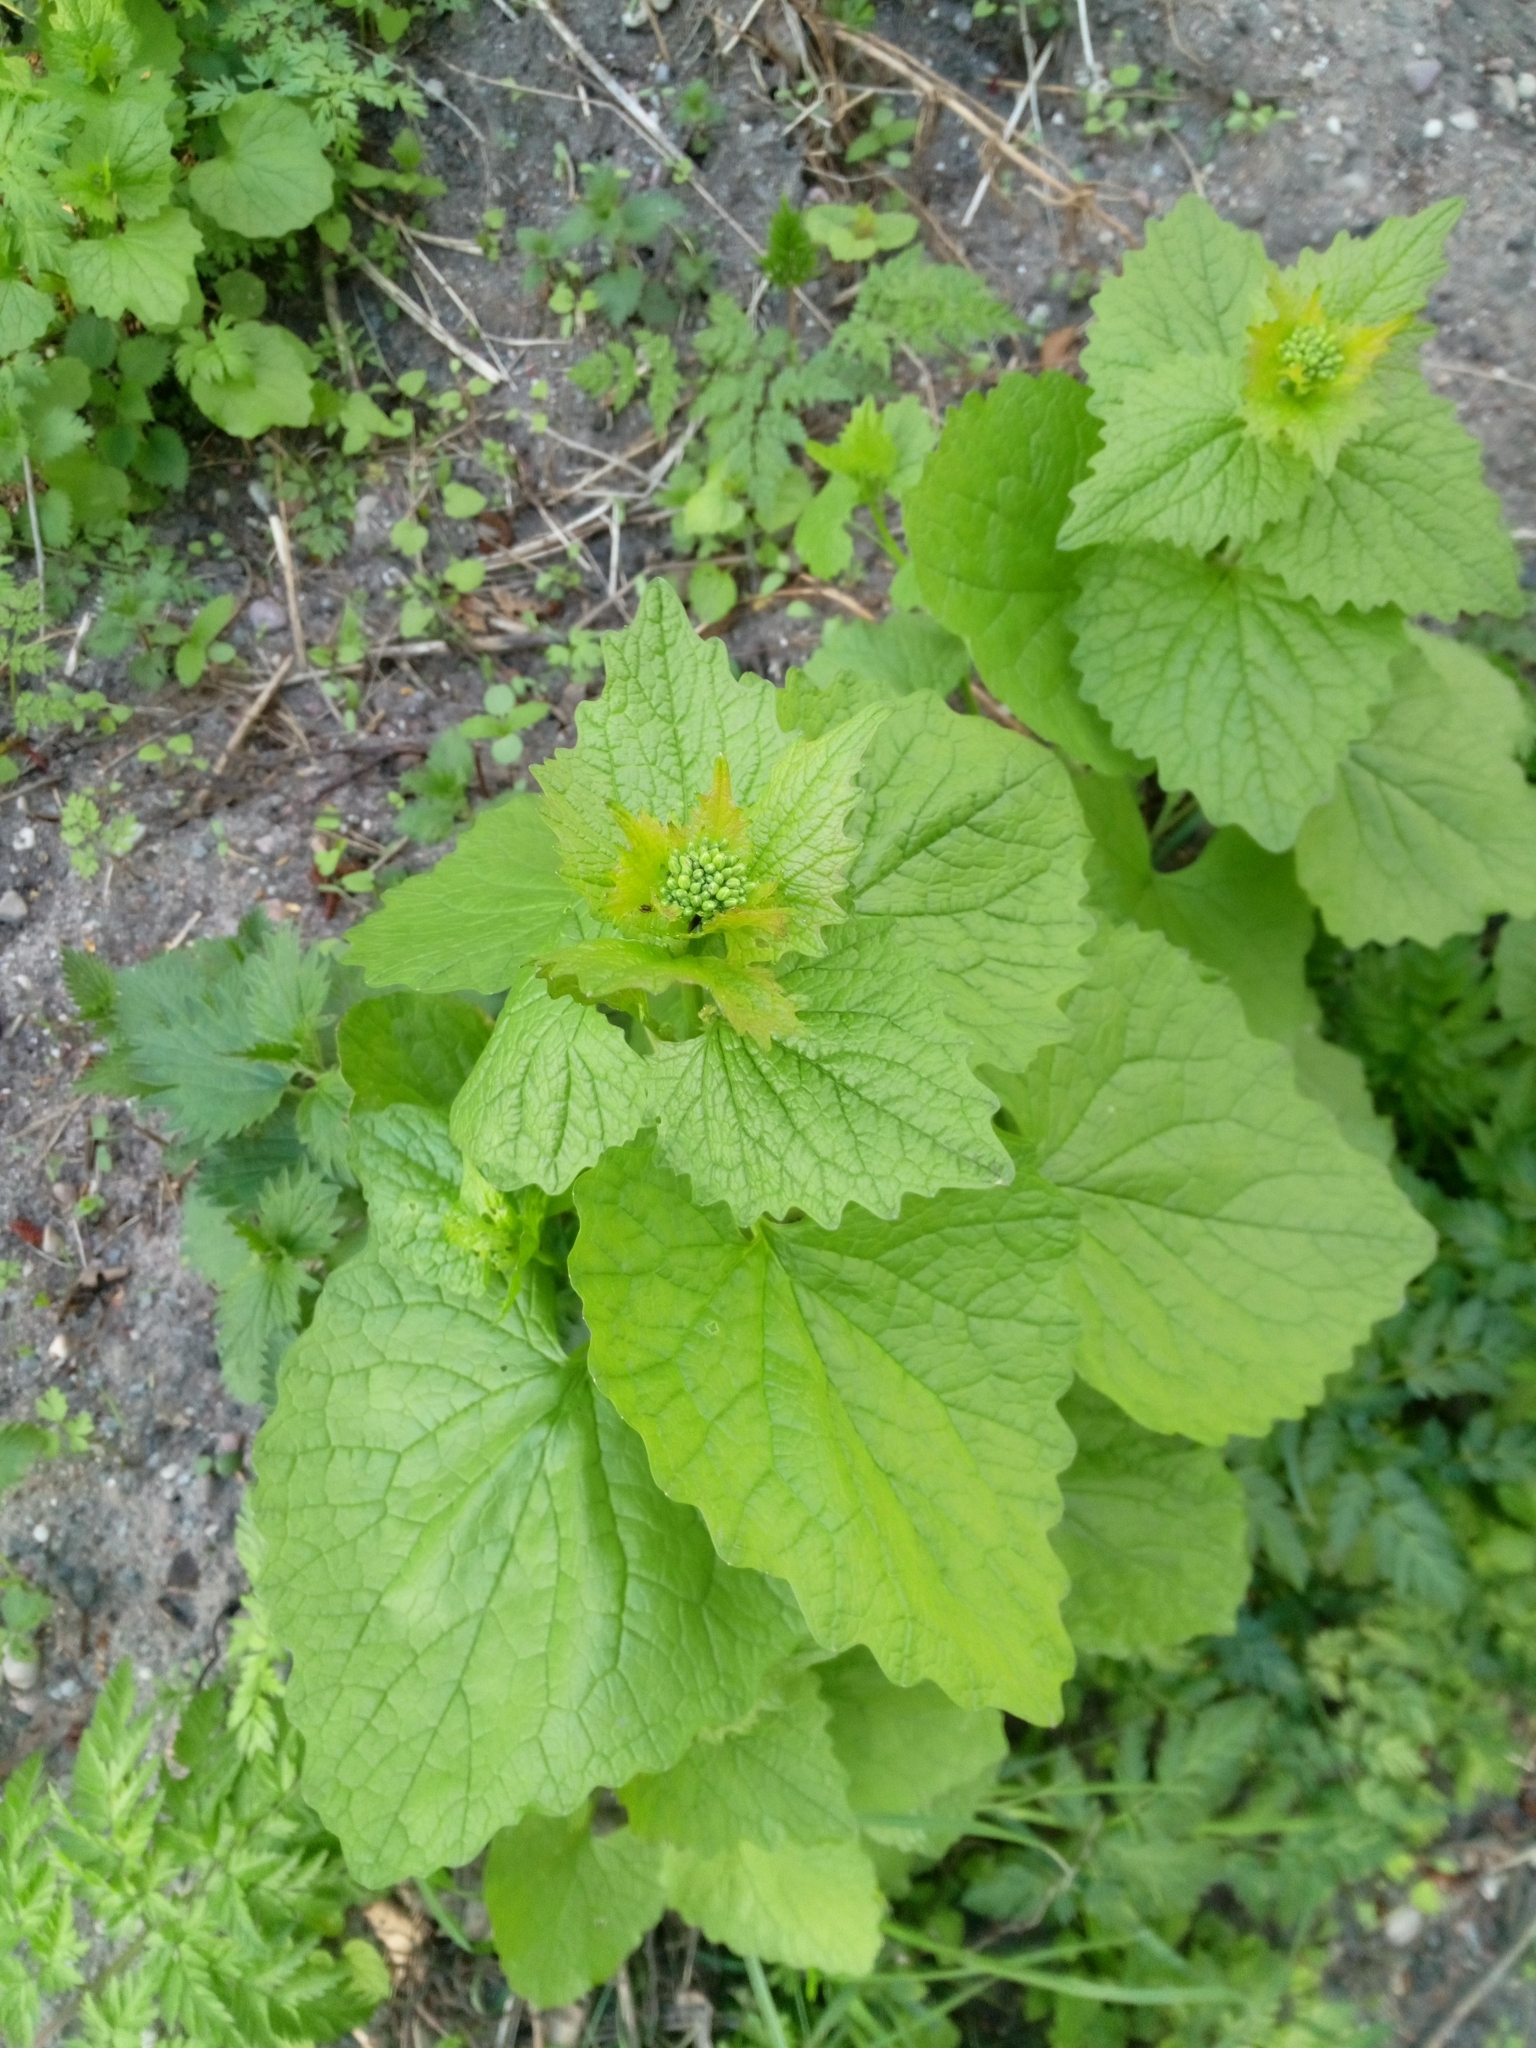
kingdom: Plantae
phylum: Tracheophyta
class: Magnoliopsida
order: Brassicales
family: Brassicaceae
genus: Alliaria
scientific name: Alliaria petiolata
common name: Garlic mustard
